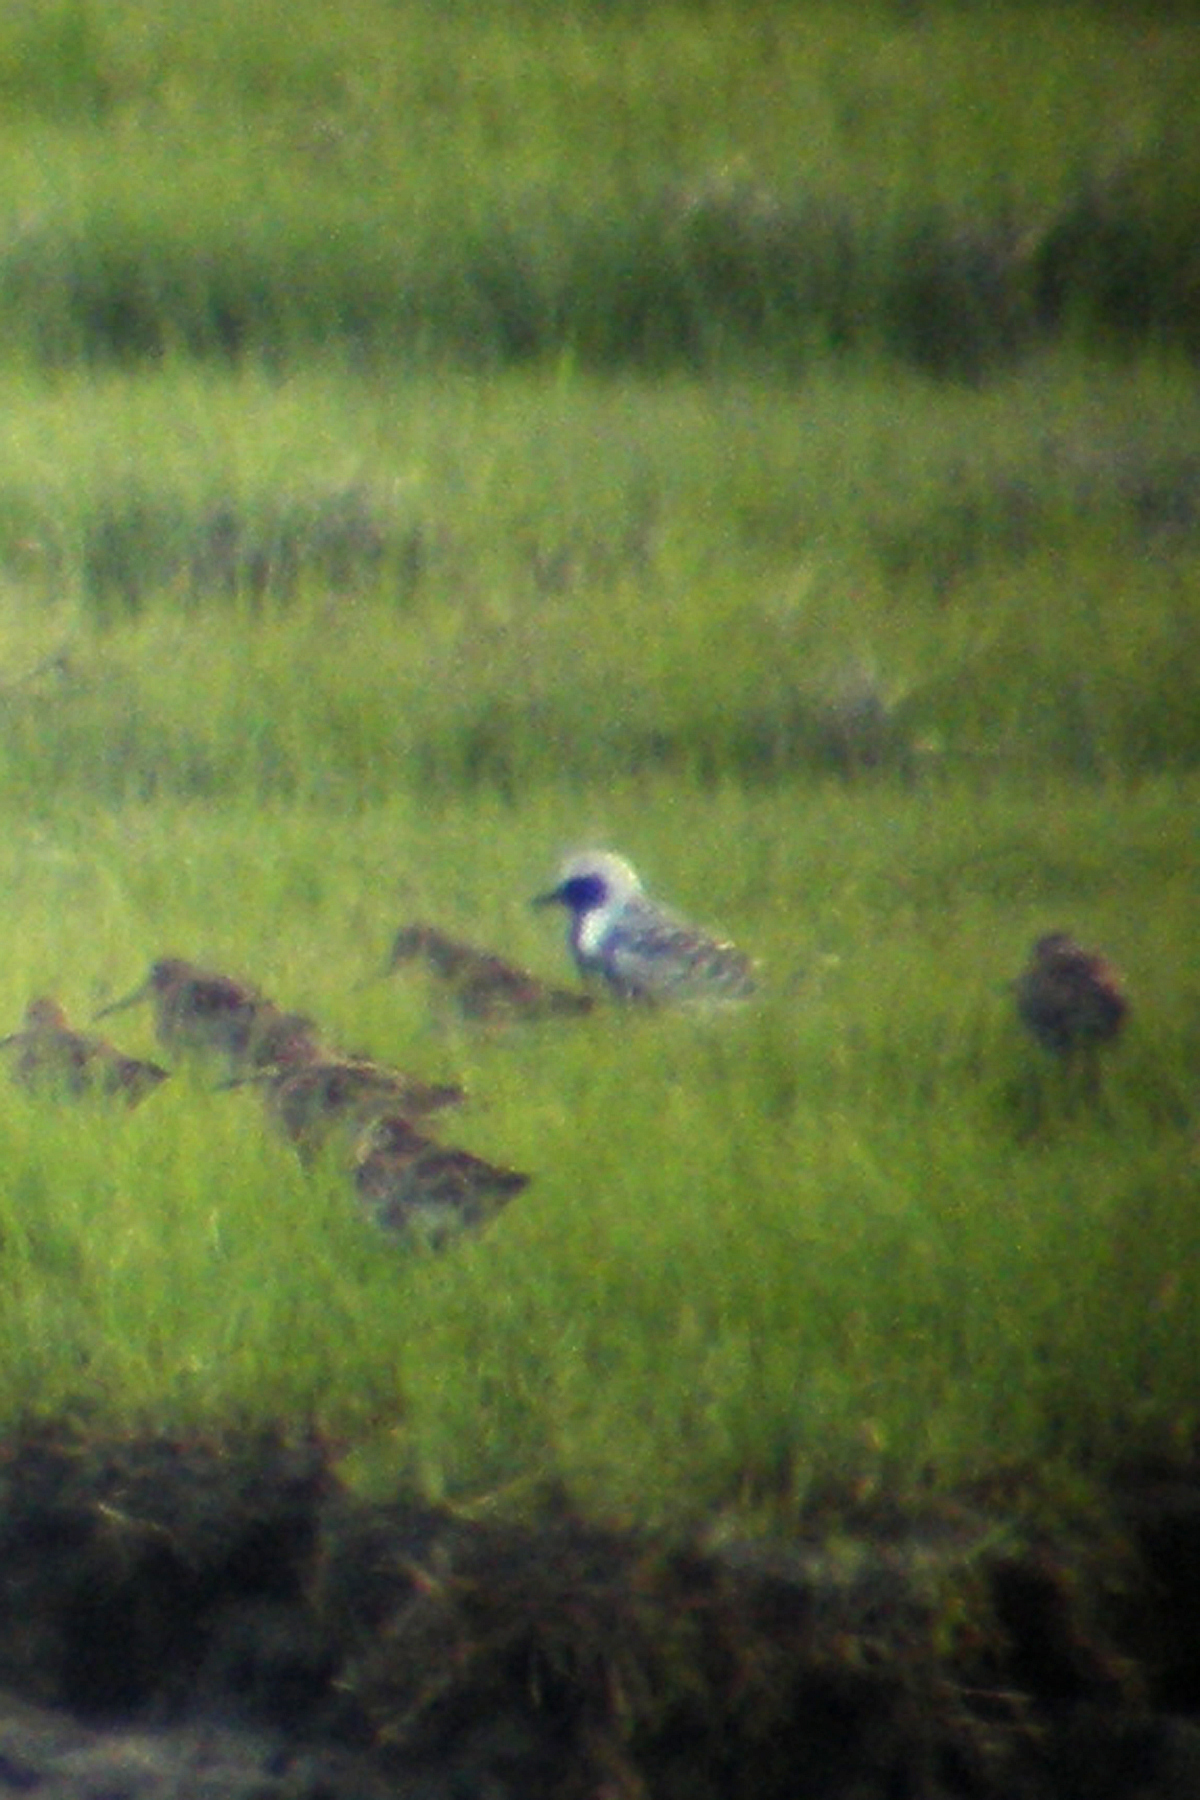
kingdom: Animalia
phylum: Chordata
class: Aves
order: Charadriiformes
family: Charadriidae
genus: Pluvialis
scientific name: Pluvialis squatarola
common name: Grey plover
